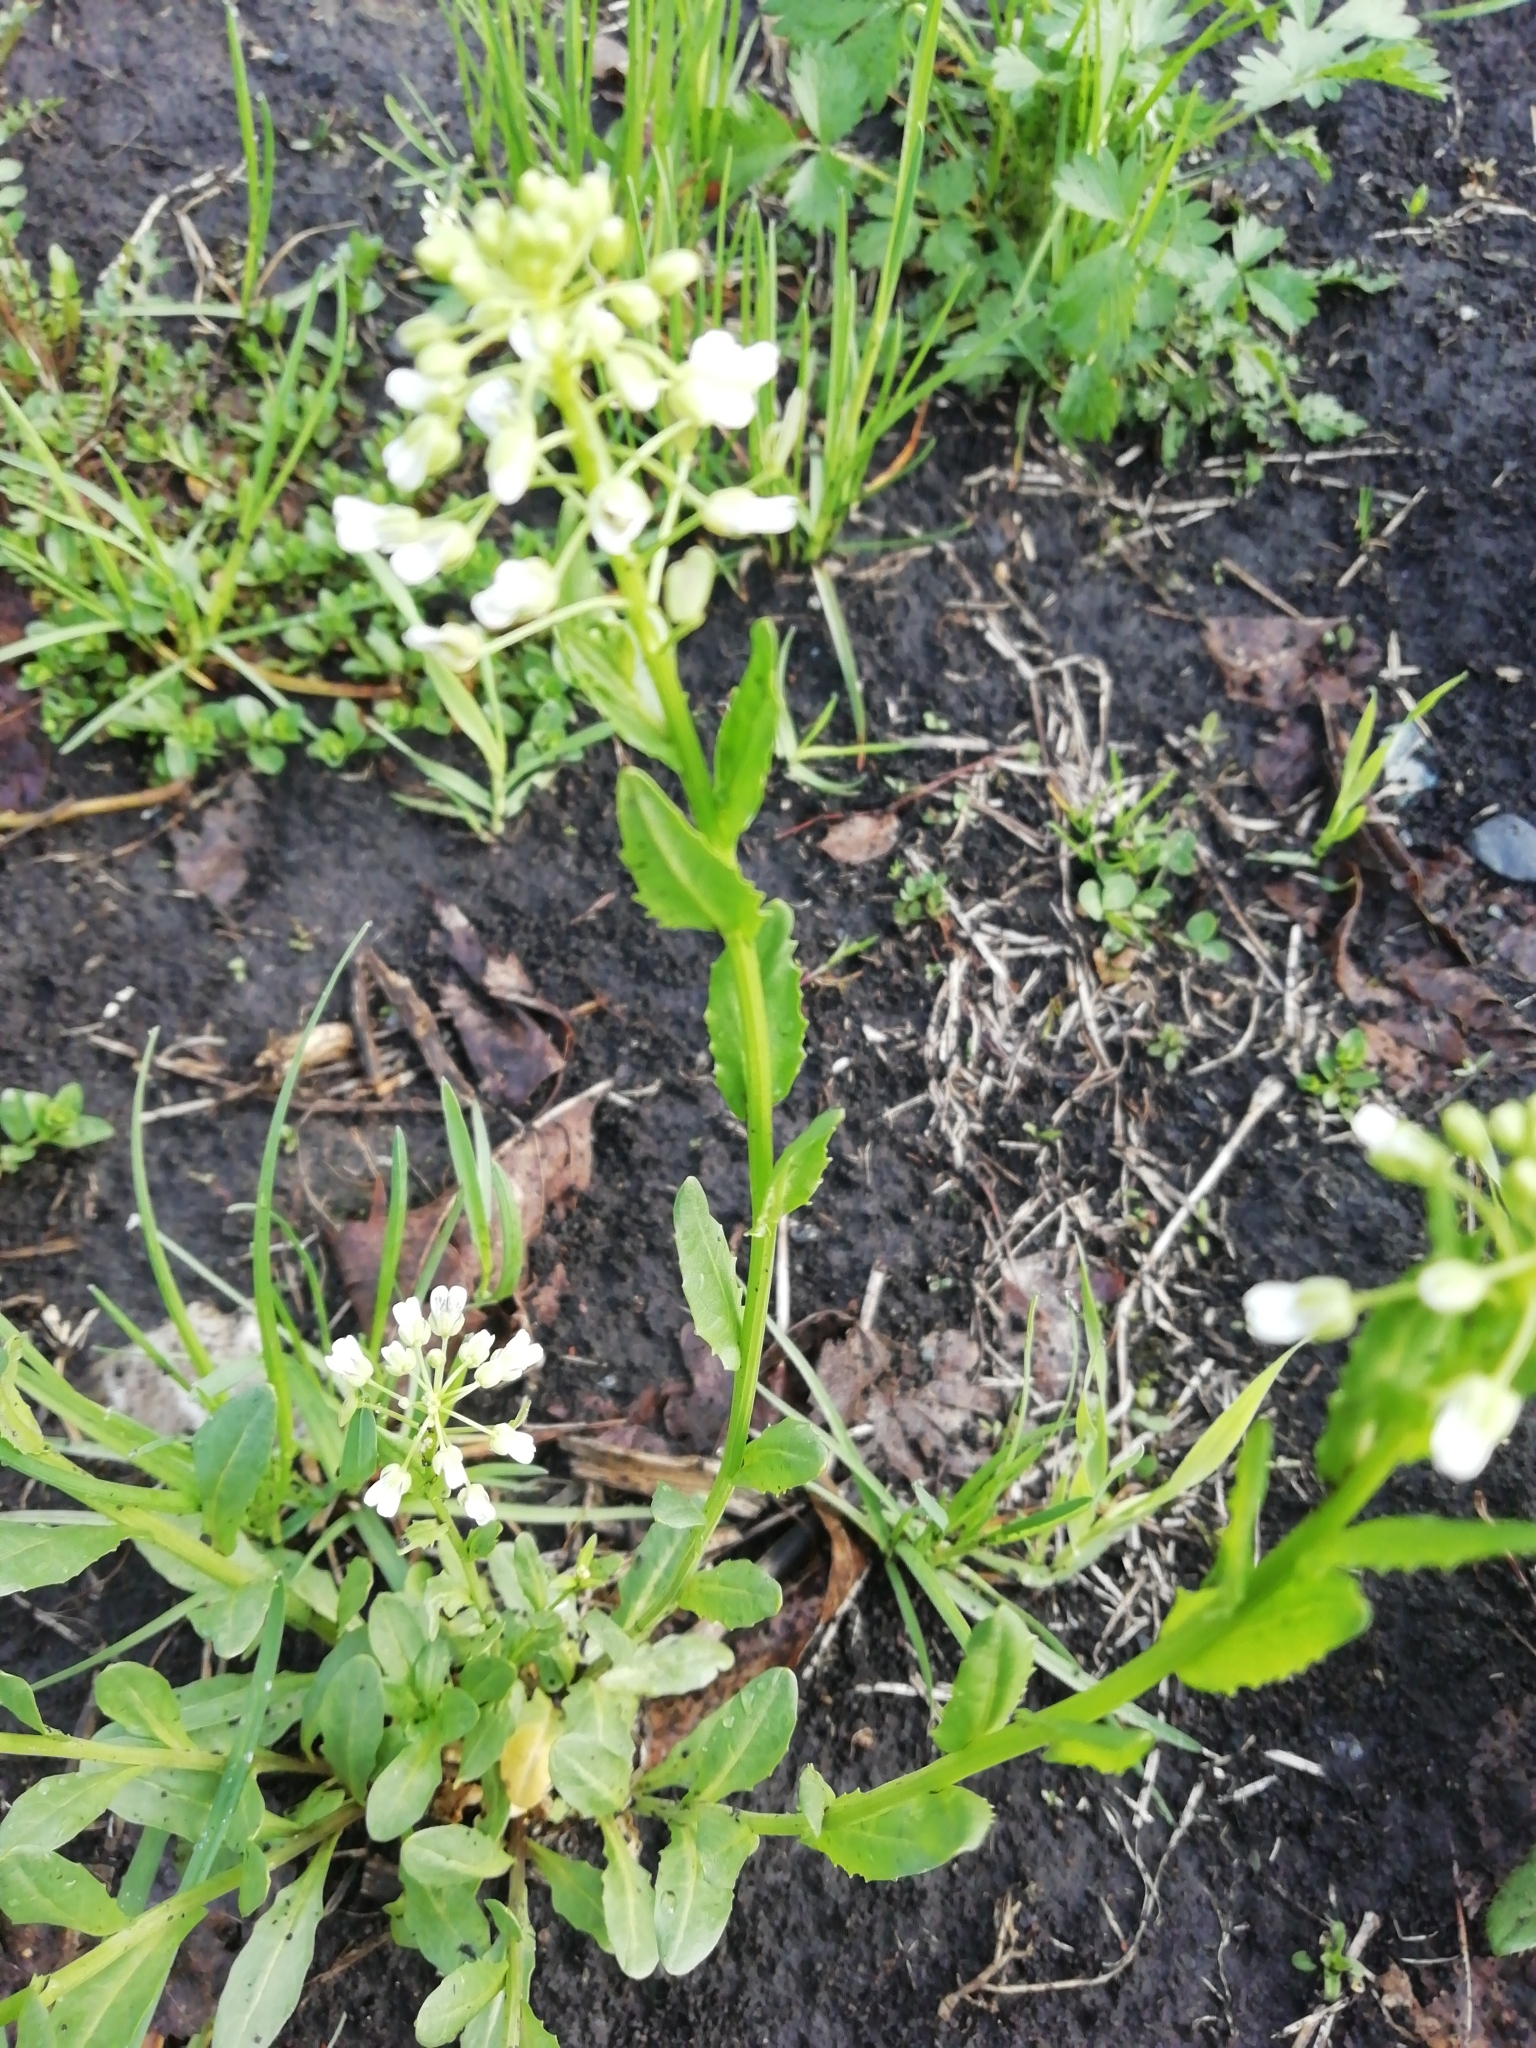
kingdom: Plantae
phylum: Tracheophyta
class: Magnoliopsida
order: Brassicales
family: Brassicaceae
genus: Thlaspi
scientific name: Thlaspi arvense
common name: Field pennycress
